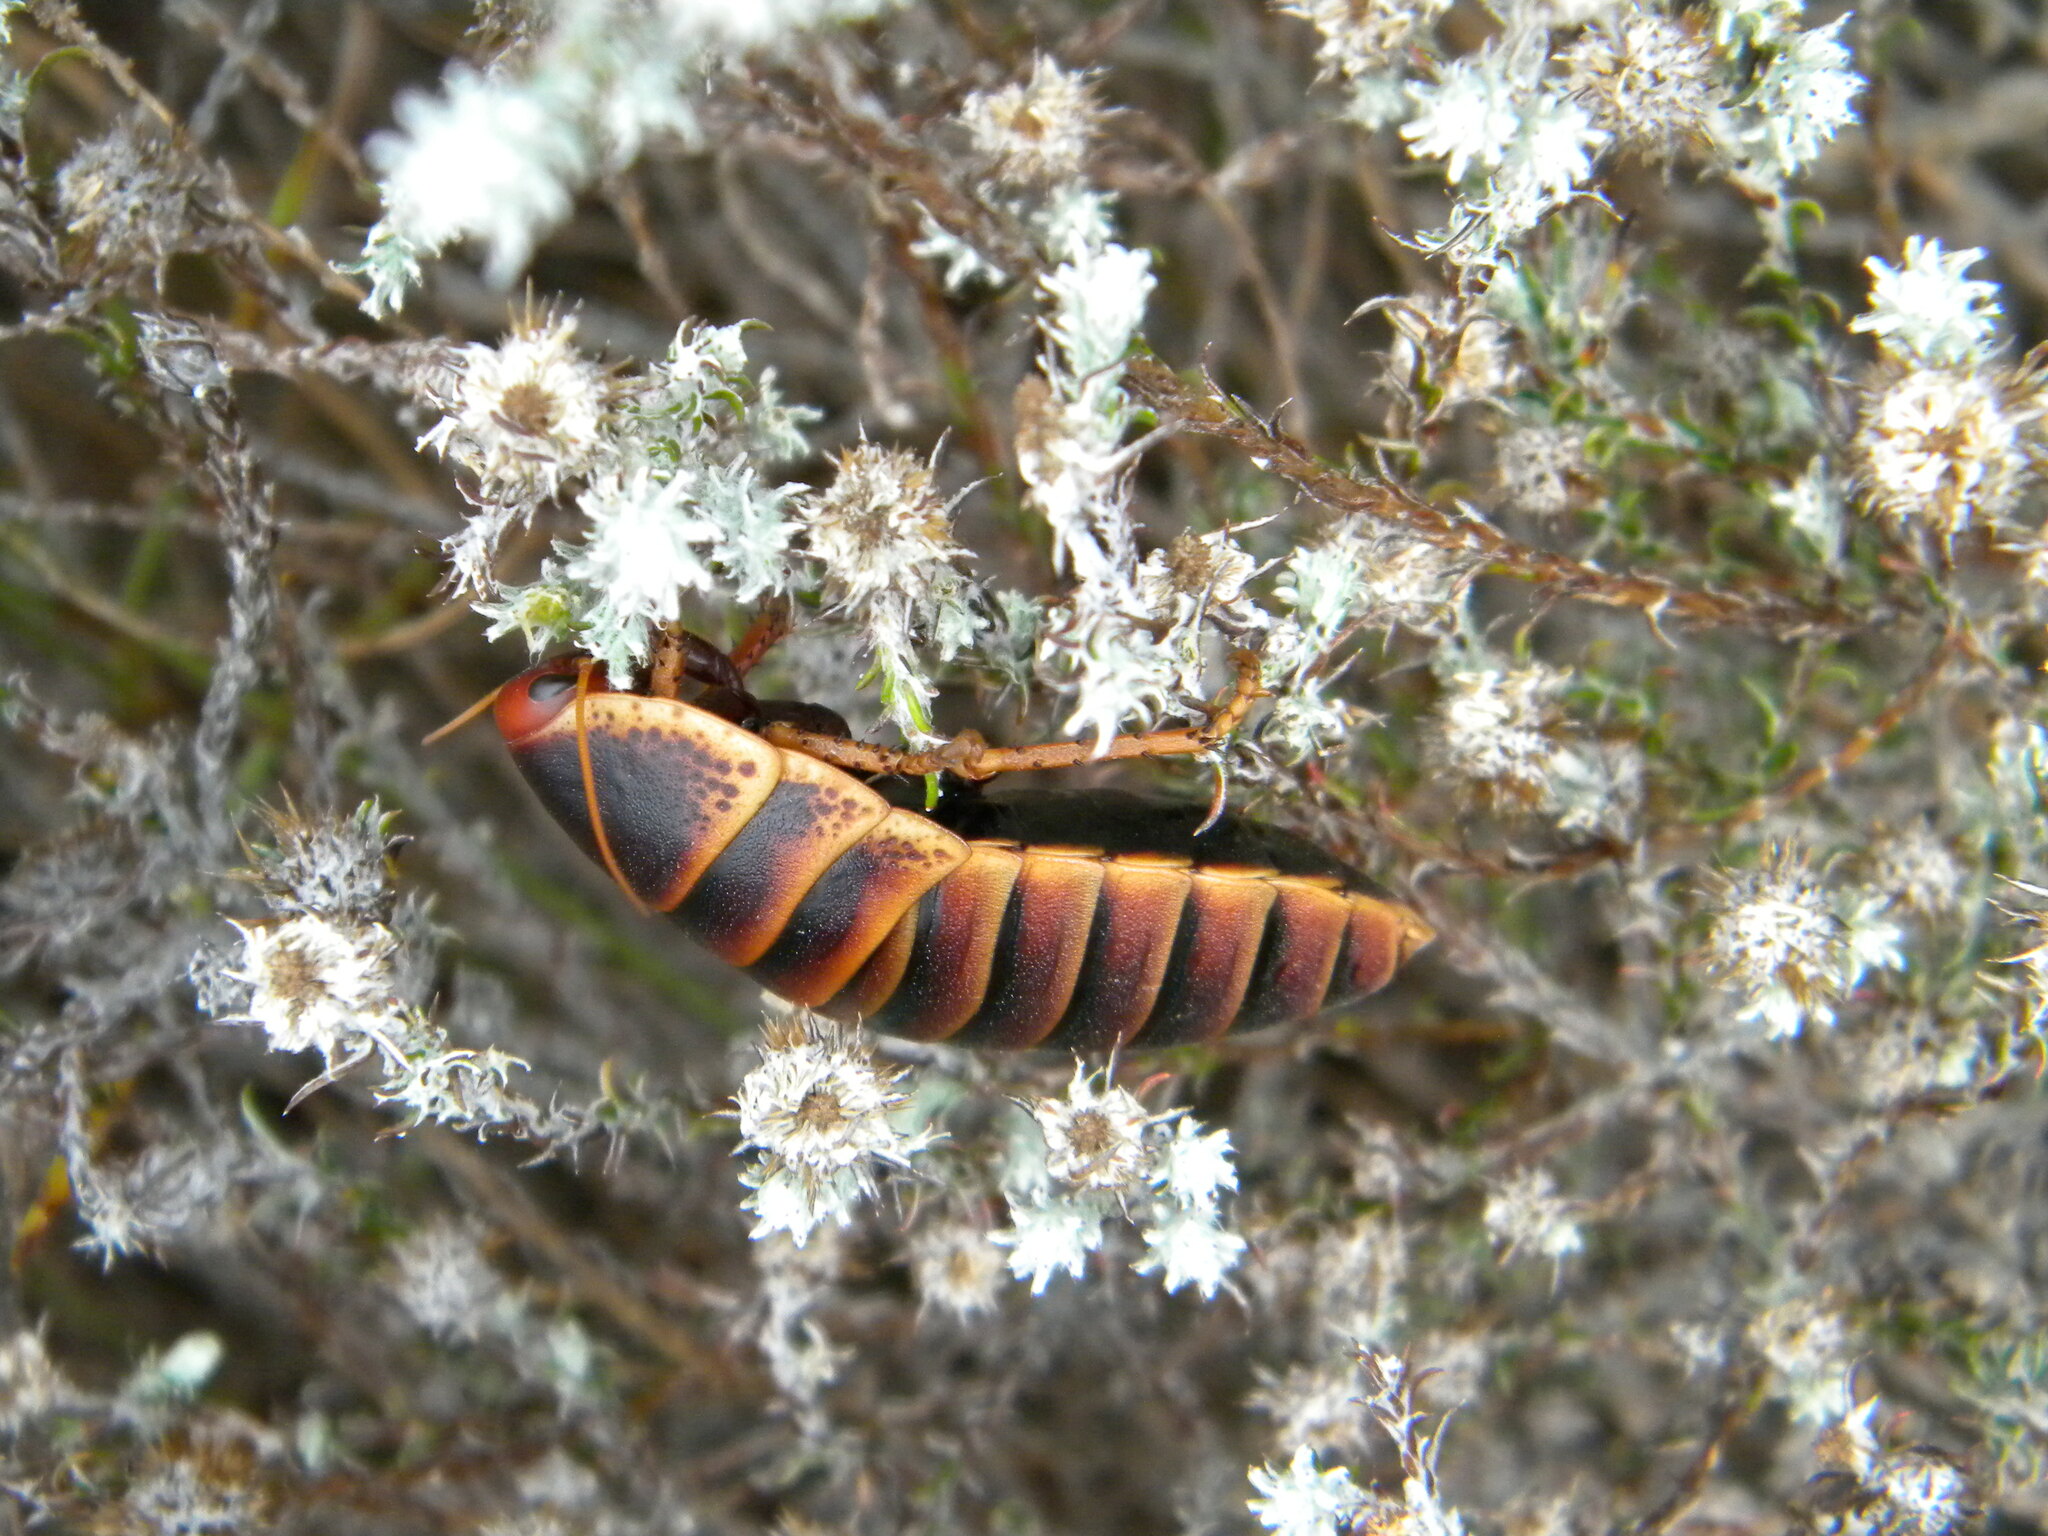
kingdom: Animalia
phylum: Arthropoda
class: Insecta
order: Blattodea
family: Blaberidae
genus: Aptera
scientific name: Aptera fusca
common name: Cape mountain cockroach
